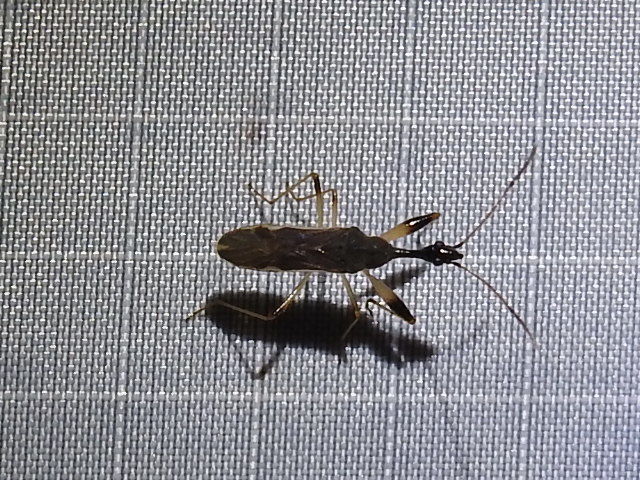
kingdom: Animalia
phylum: Arthropoda
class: Insecta
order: Hemiptera
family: Rhyparochromidae
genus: Myodocha
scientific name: Myodocha serripes
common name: Long-necked seed bug
